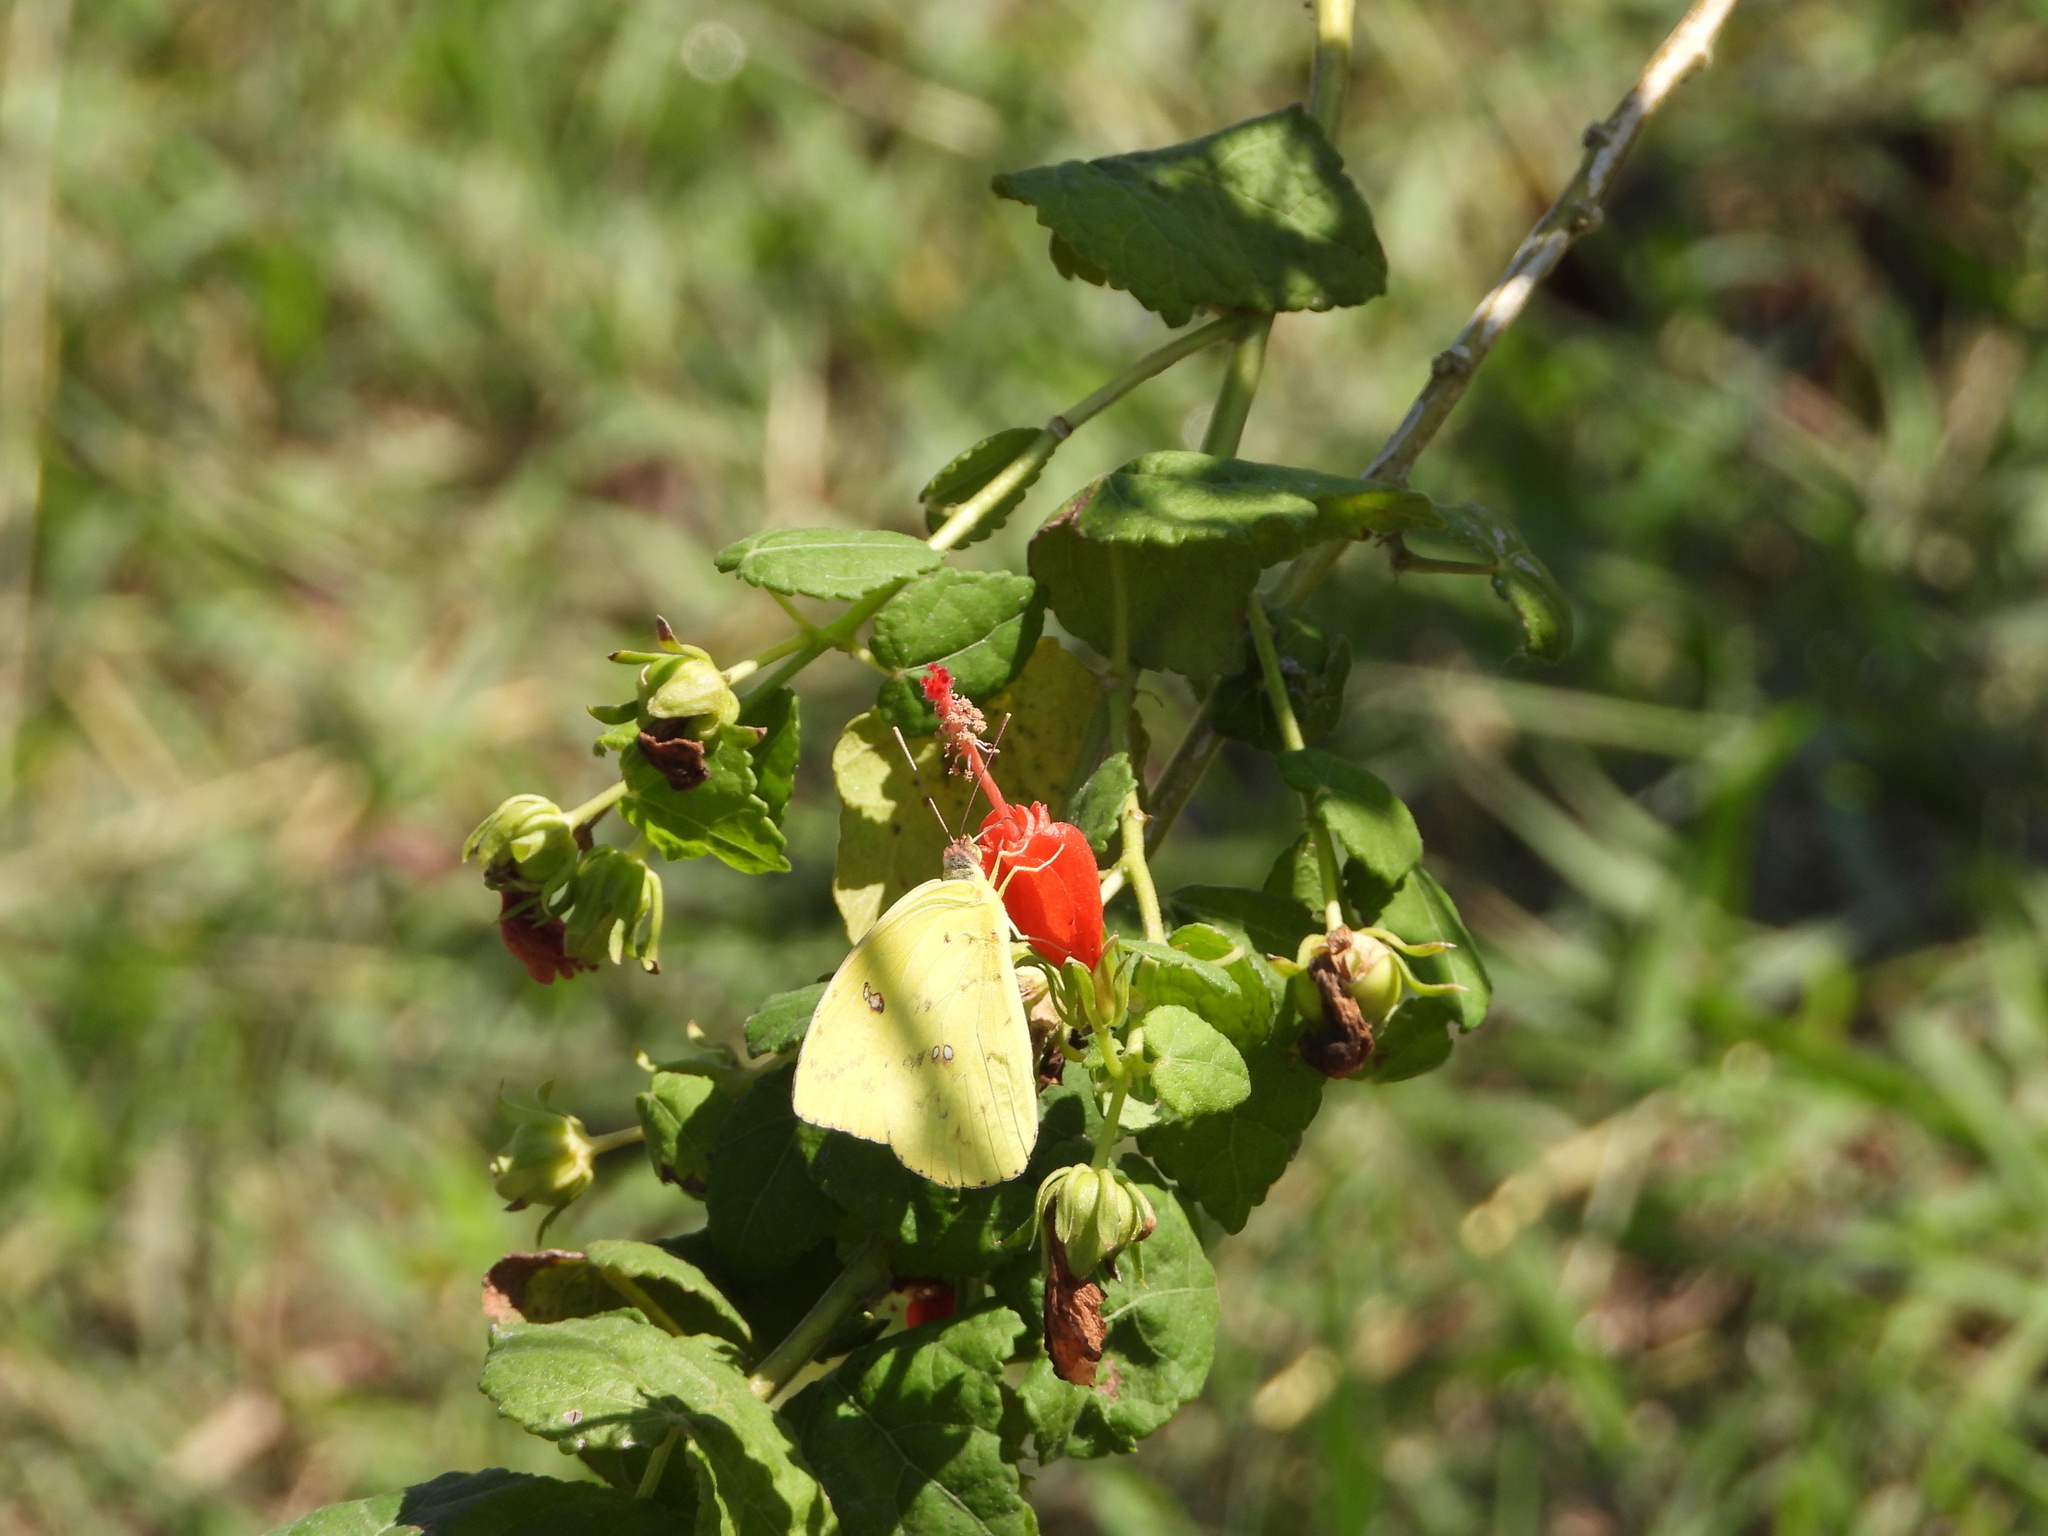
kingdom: Animalia
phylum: Arthropoda
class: Insecta
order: Lepidoptera
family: Pieridae
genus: Phoebis
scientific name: Phoebis agarithe
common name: Large orange sulphur
